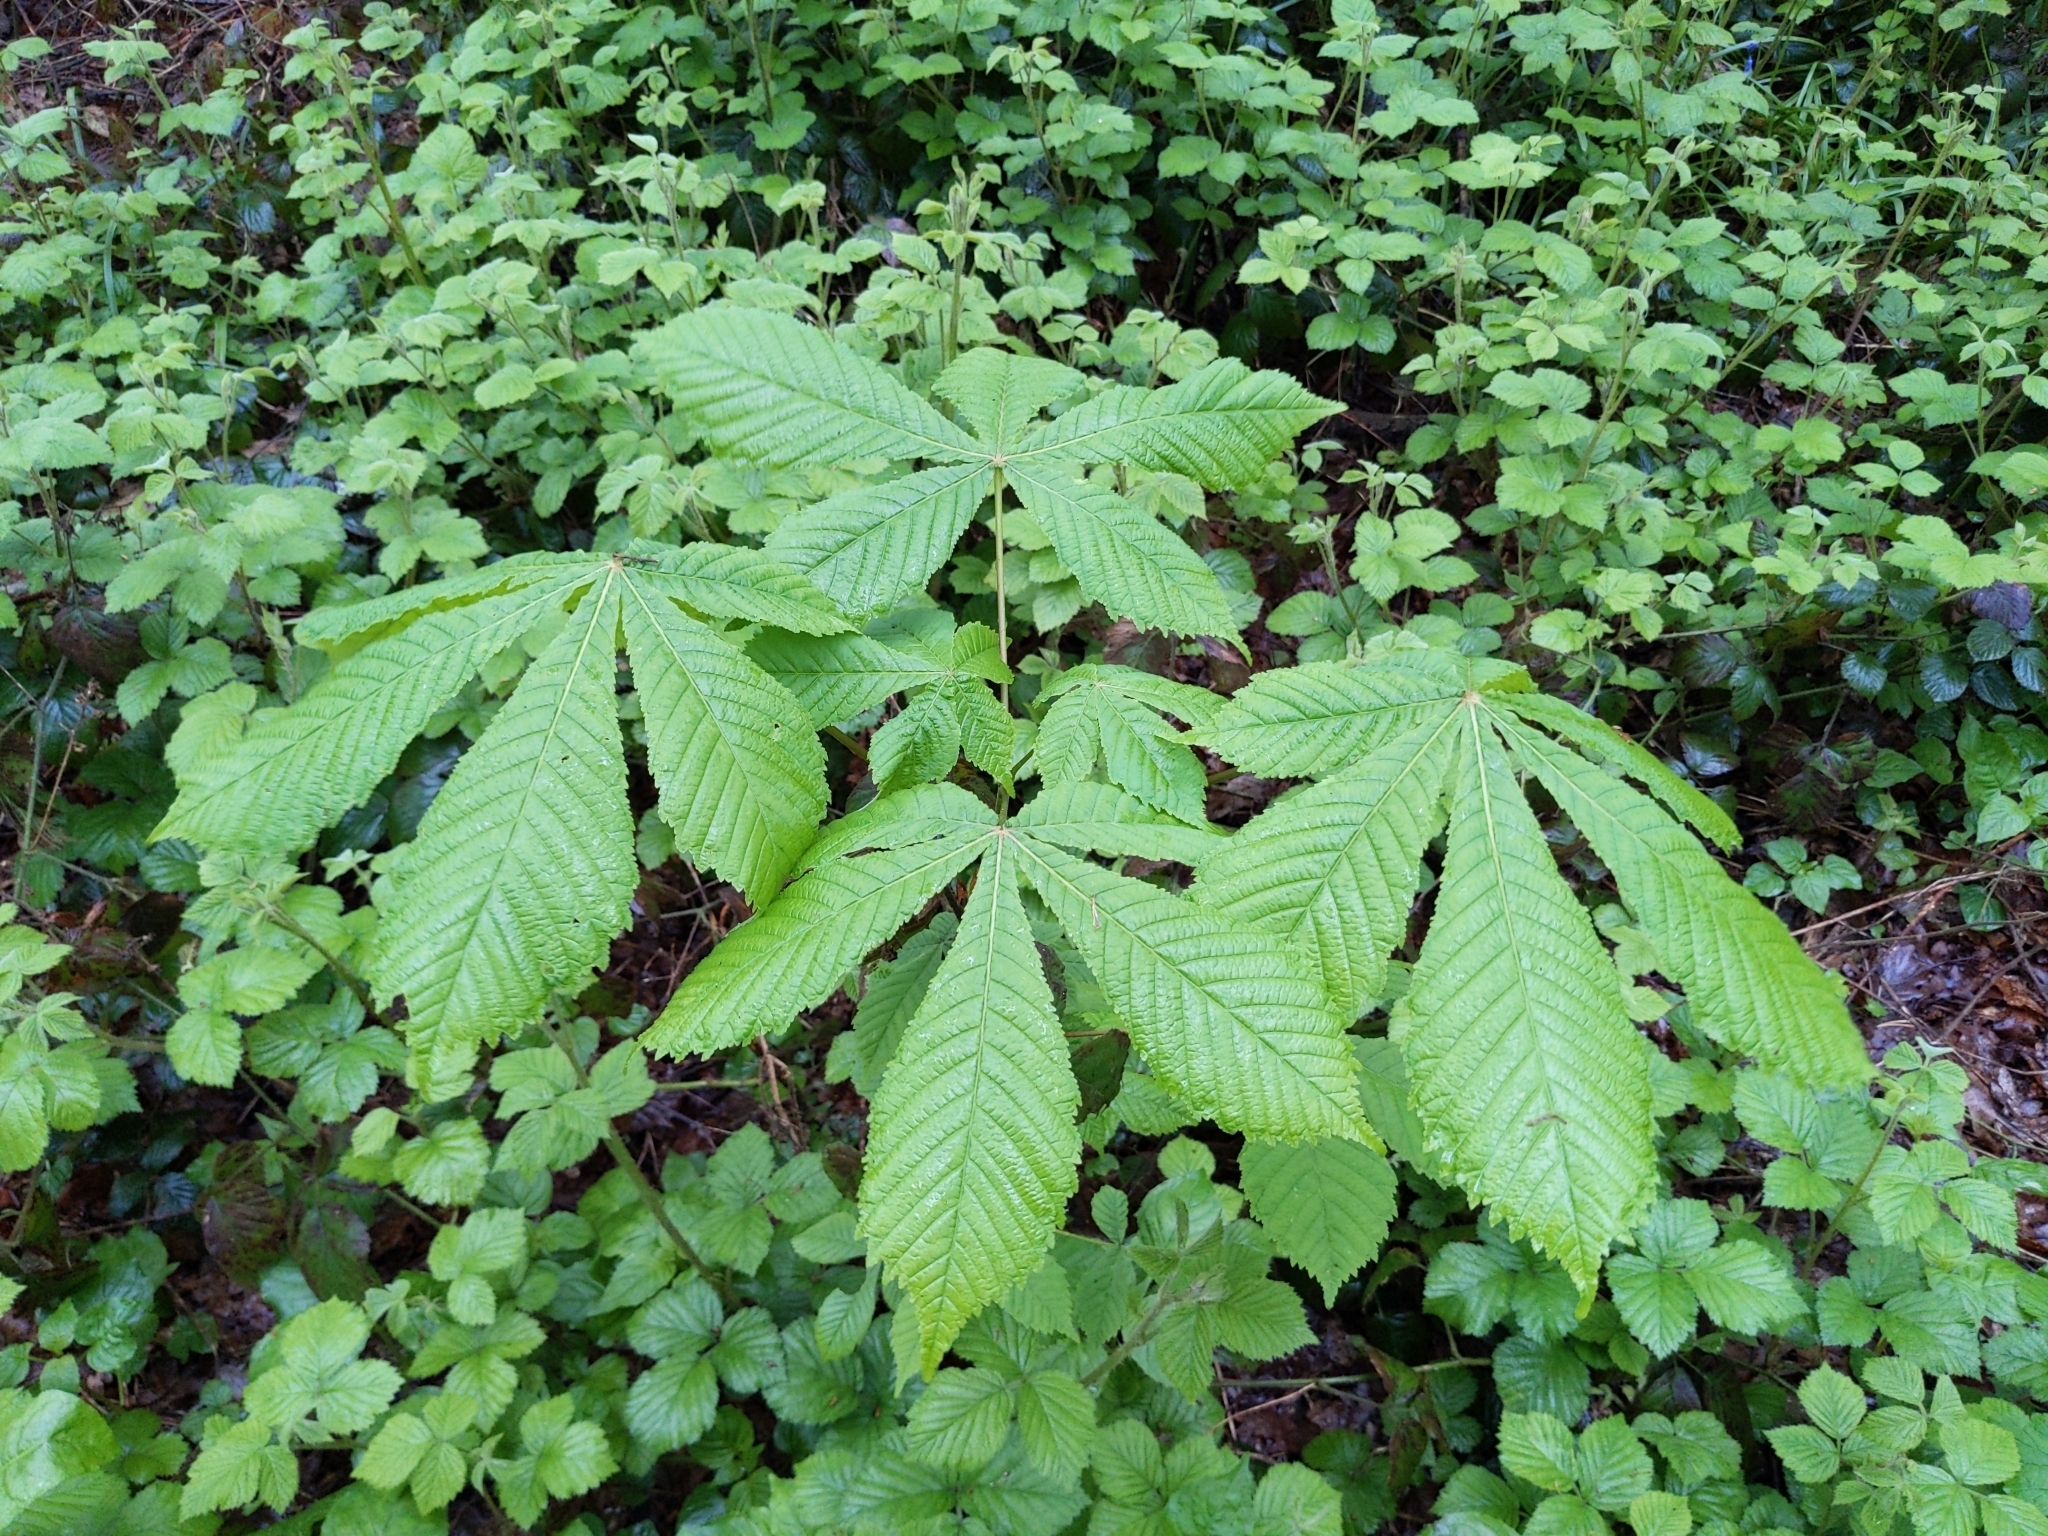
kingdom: Plantae
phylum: Tracheophyta
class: Magnoliopsida
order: Sapindales
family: Sapindaceae
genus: Aesculus
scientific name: Aesculus hippocastanum
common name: Horse-chestnut
